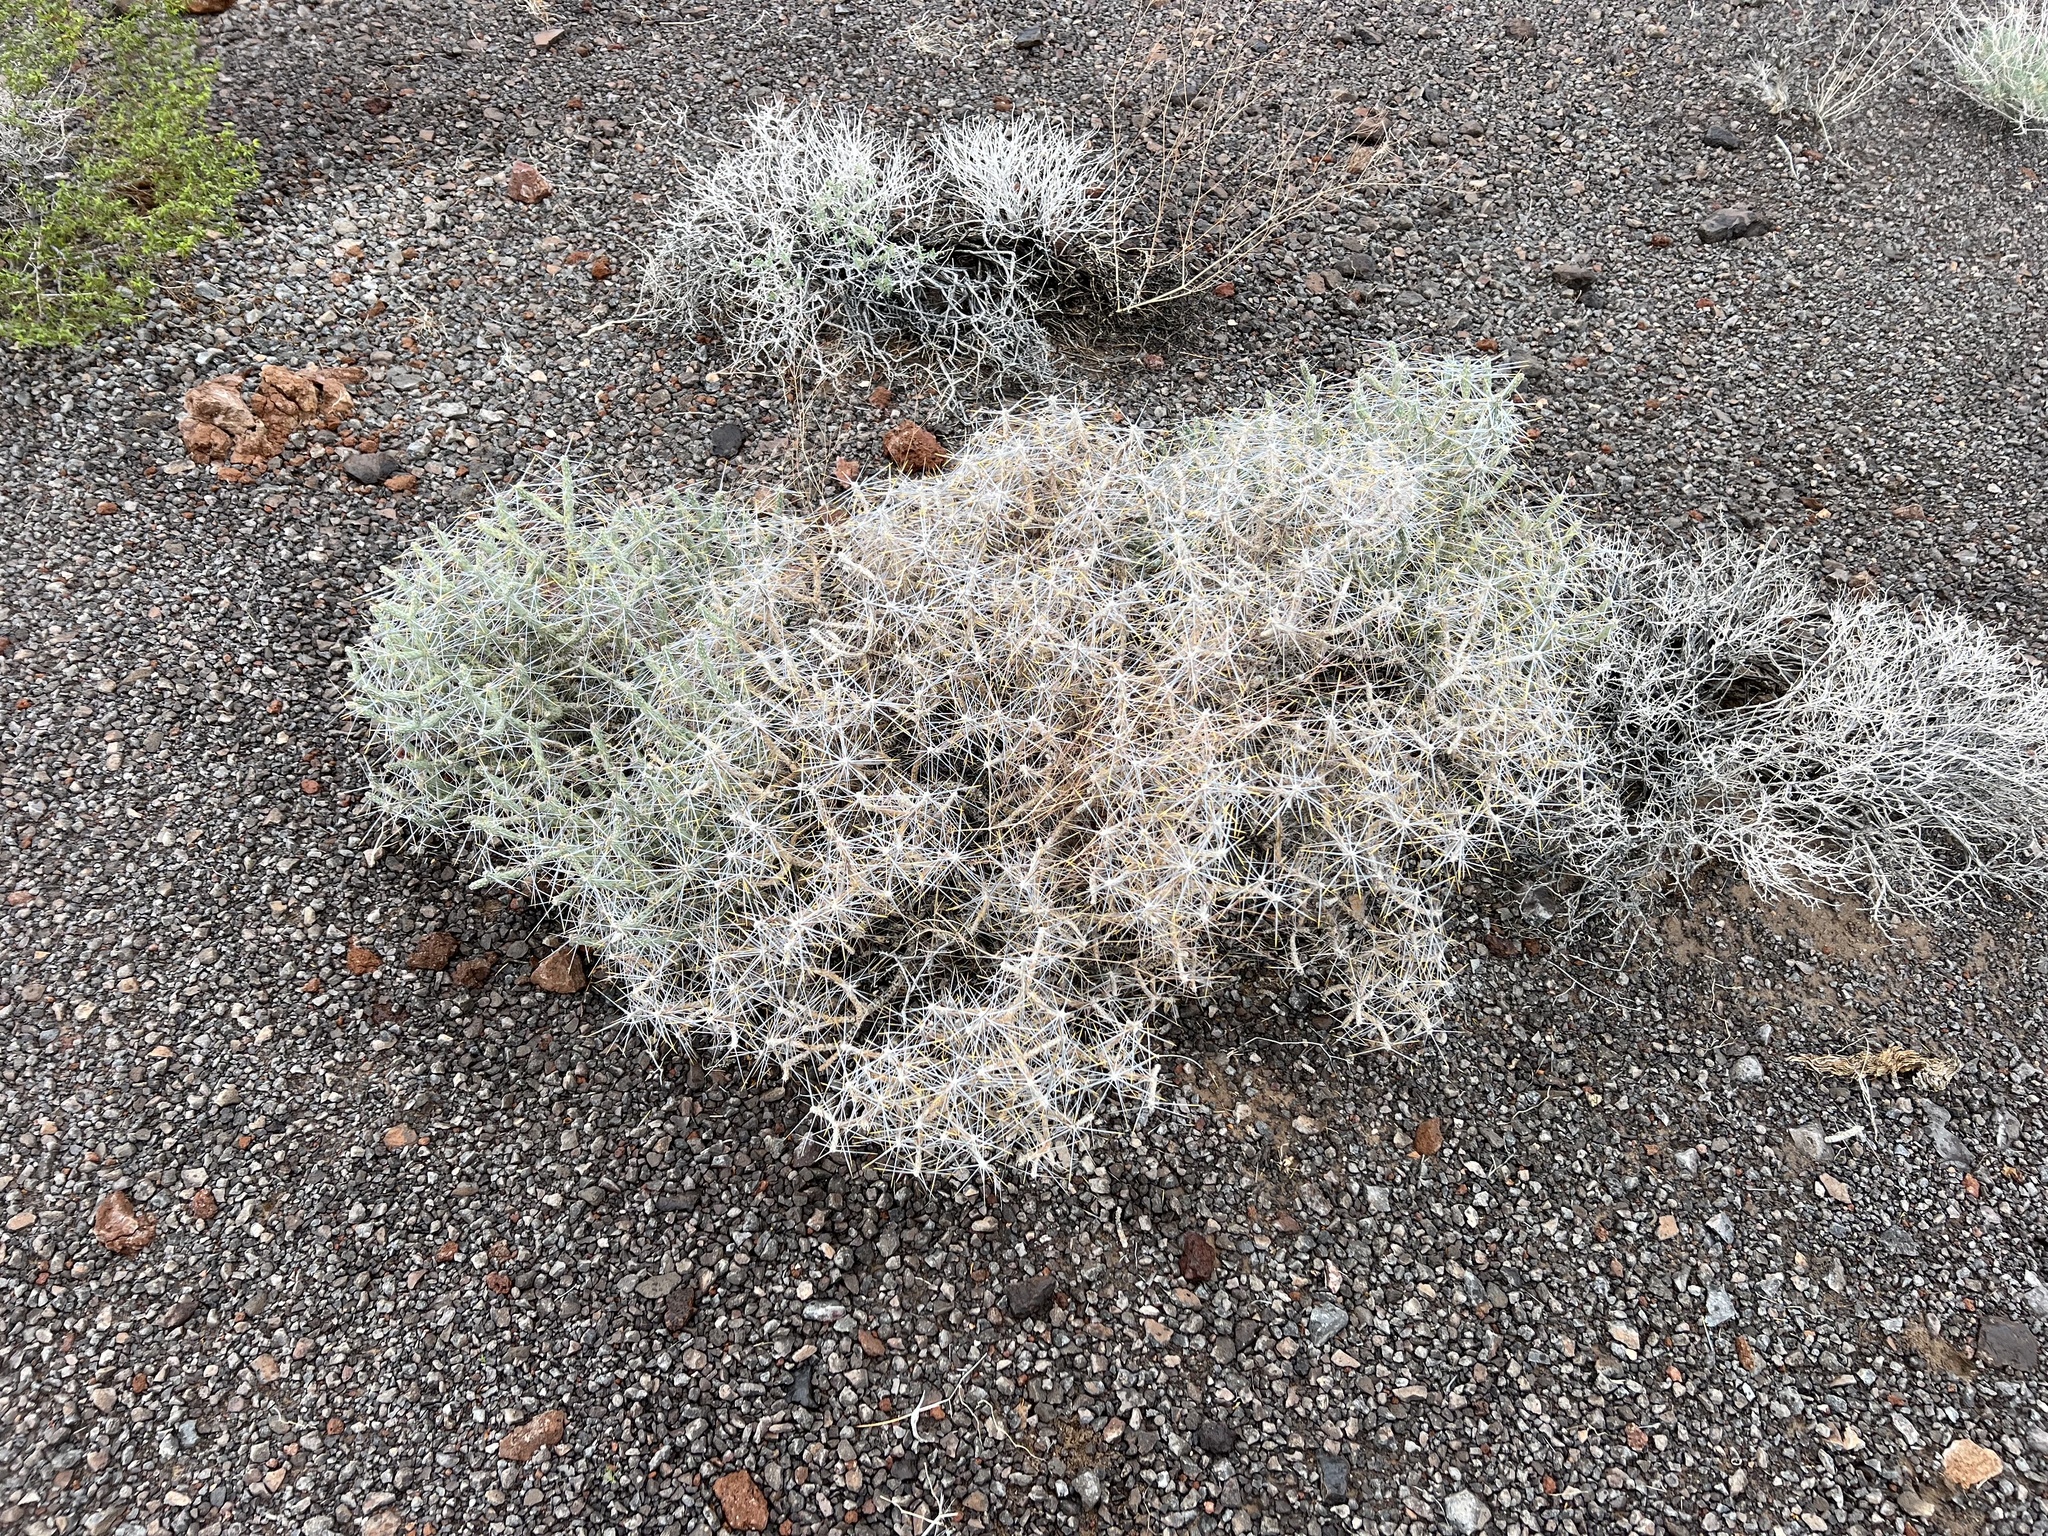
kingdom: Plantae
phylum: Tracheophyta
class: Magnoliopsida
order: Caryophyllales
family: Cactaceae
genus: Cylindropuntia
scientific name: Cylindropuntia ramosissima
